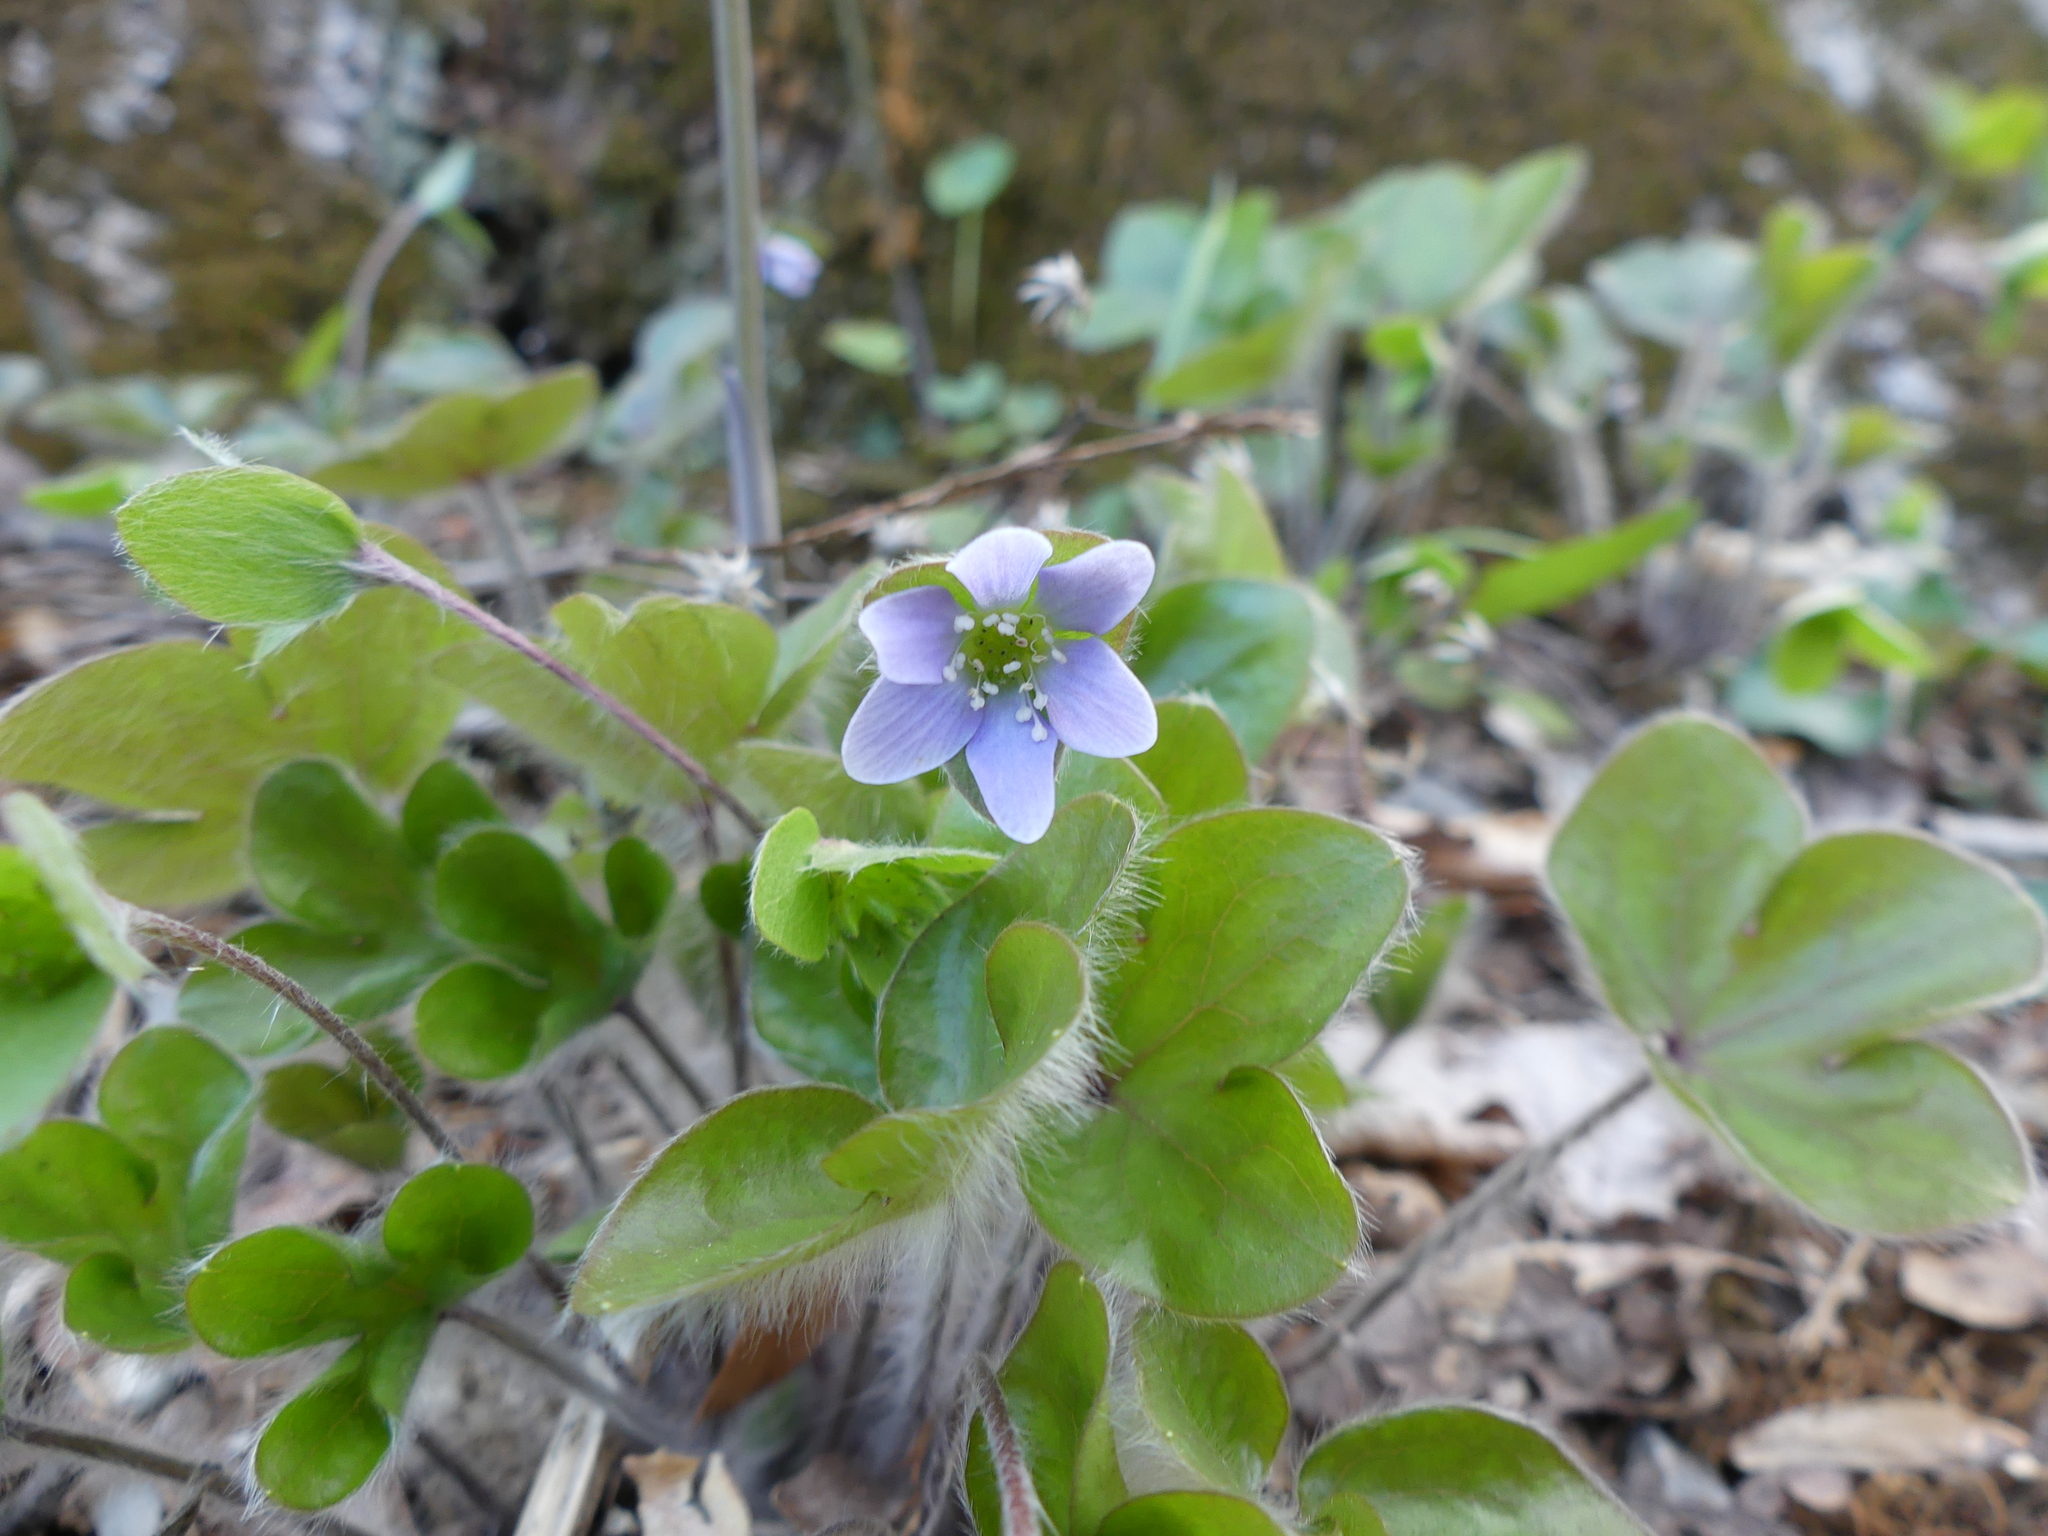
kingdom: Plantae
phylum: Tracheophyta
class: Magnoliopsida
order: Ranunculales
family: Ranunculaceae
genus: Hepatica
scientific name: Hepatica americana
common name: American hepatica
